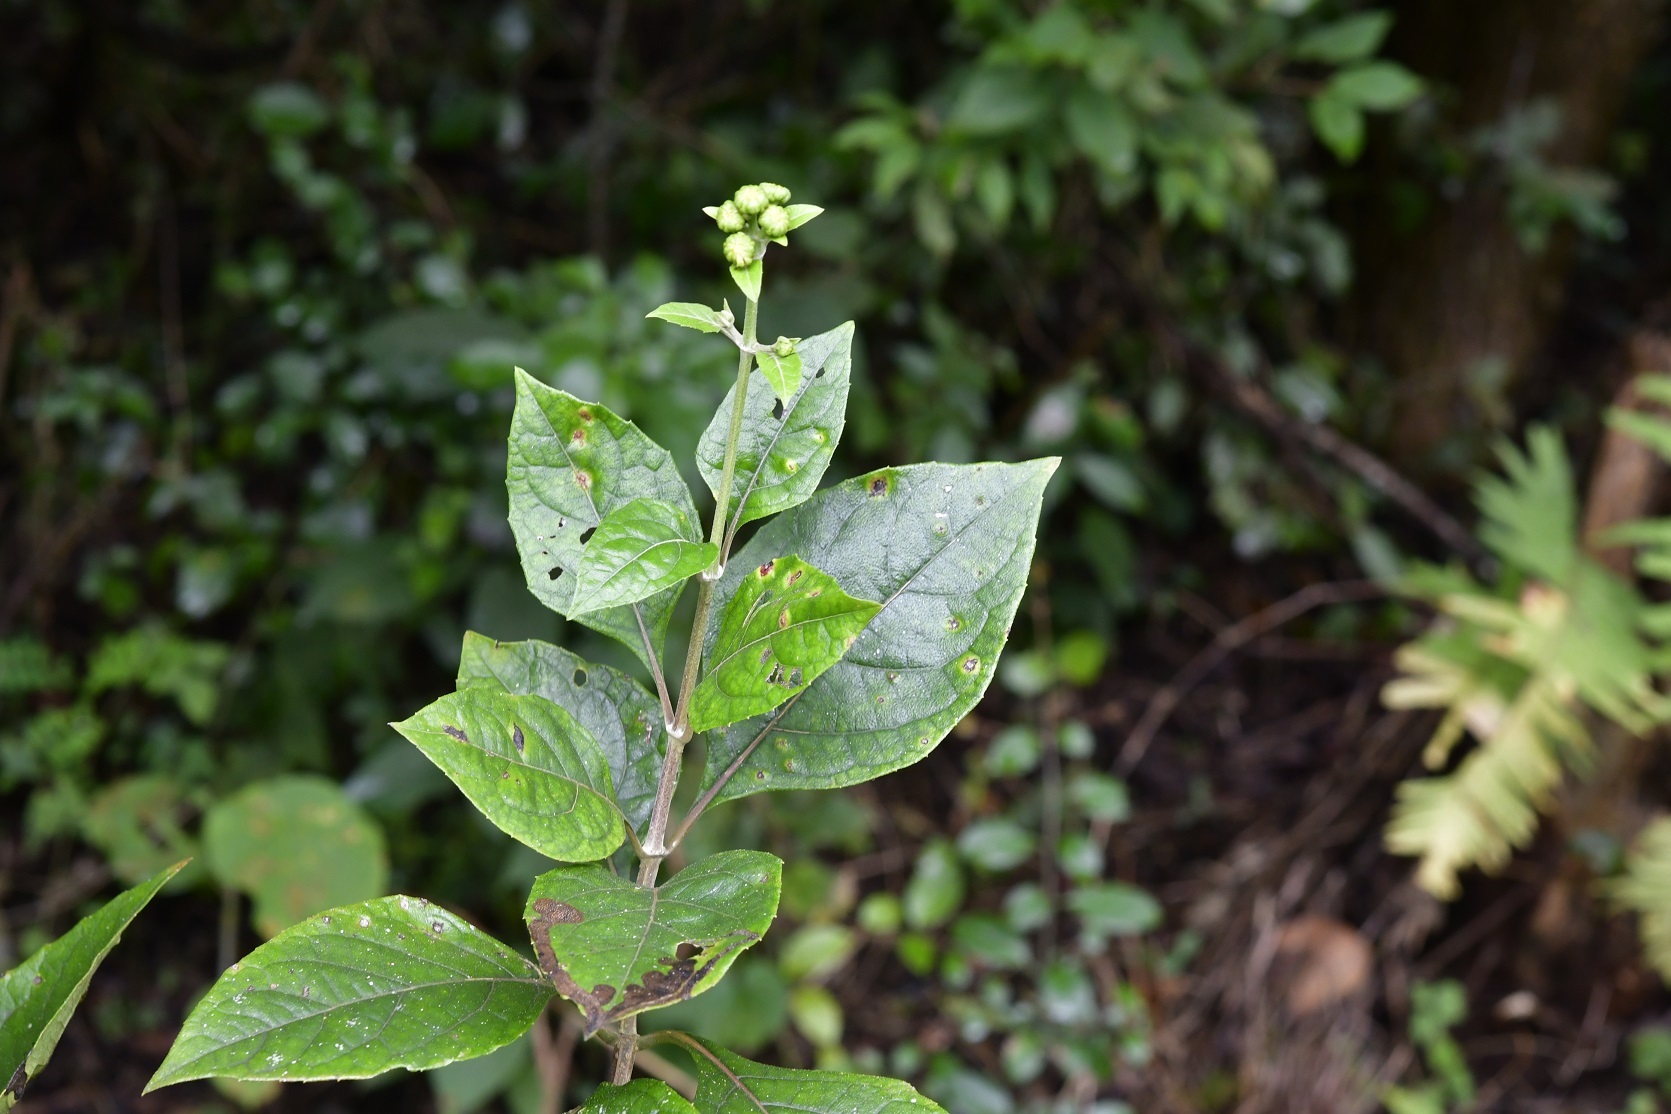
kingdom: Plantae
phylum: Tracheophyta
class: Magnoliopsida
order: Asterales
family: Asteraceae
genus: Sinclairia
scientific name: Sinclairia vagans
